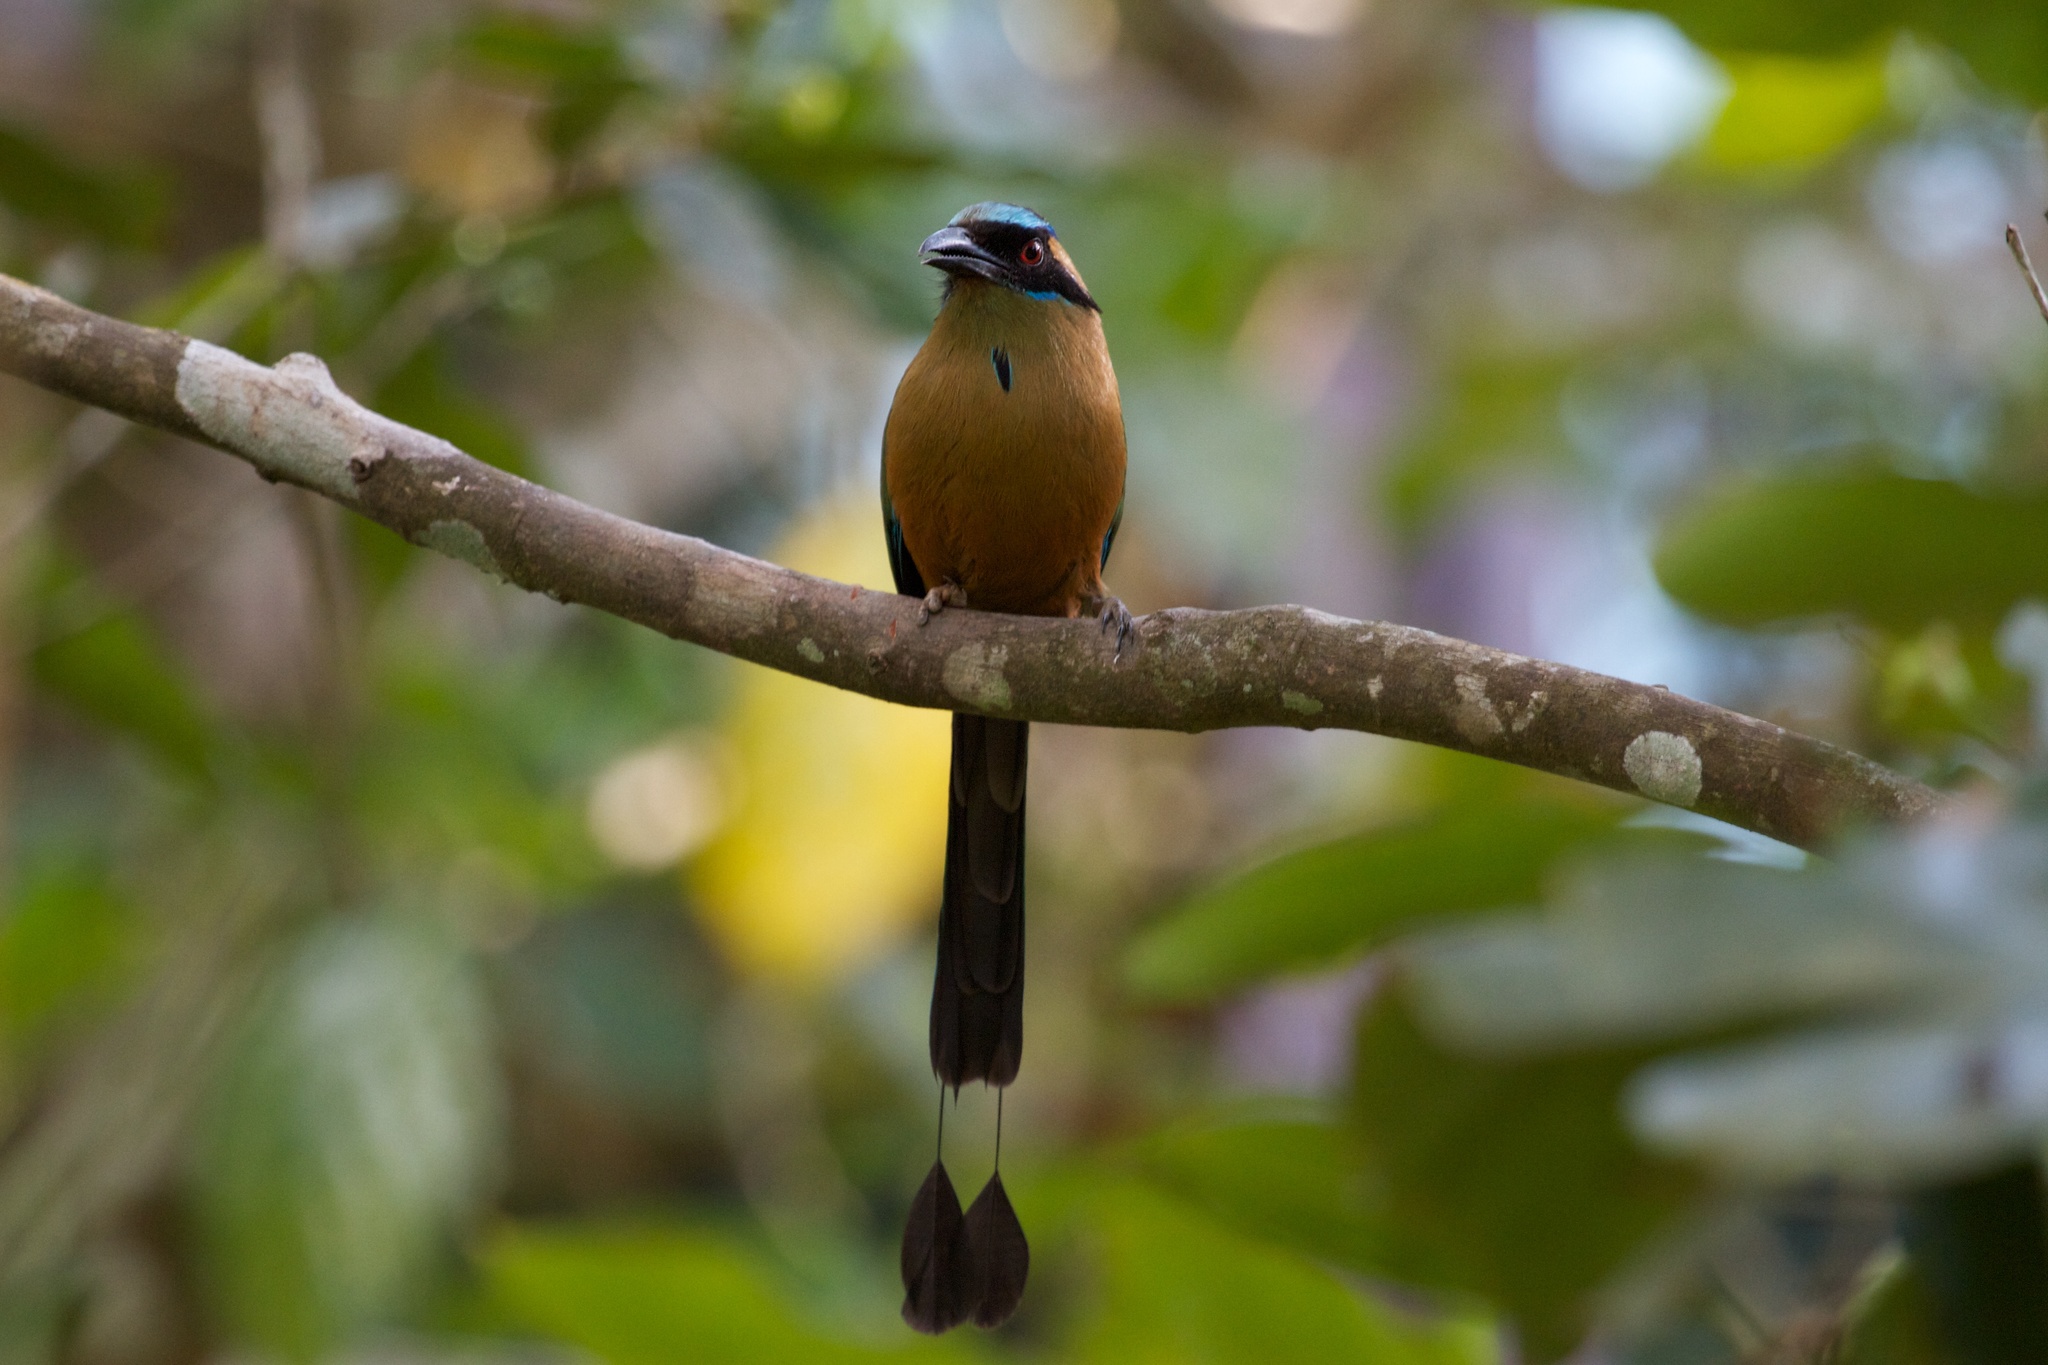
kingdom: Animalia
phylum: Chordata
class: Aves
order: Coraciiformes
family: Momotidae
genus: Momotus
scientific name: Momotus subrufescens
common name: Whooping motmot
